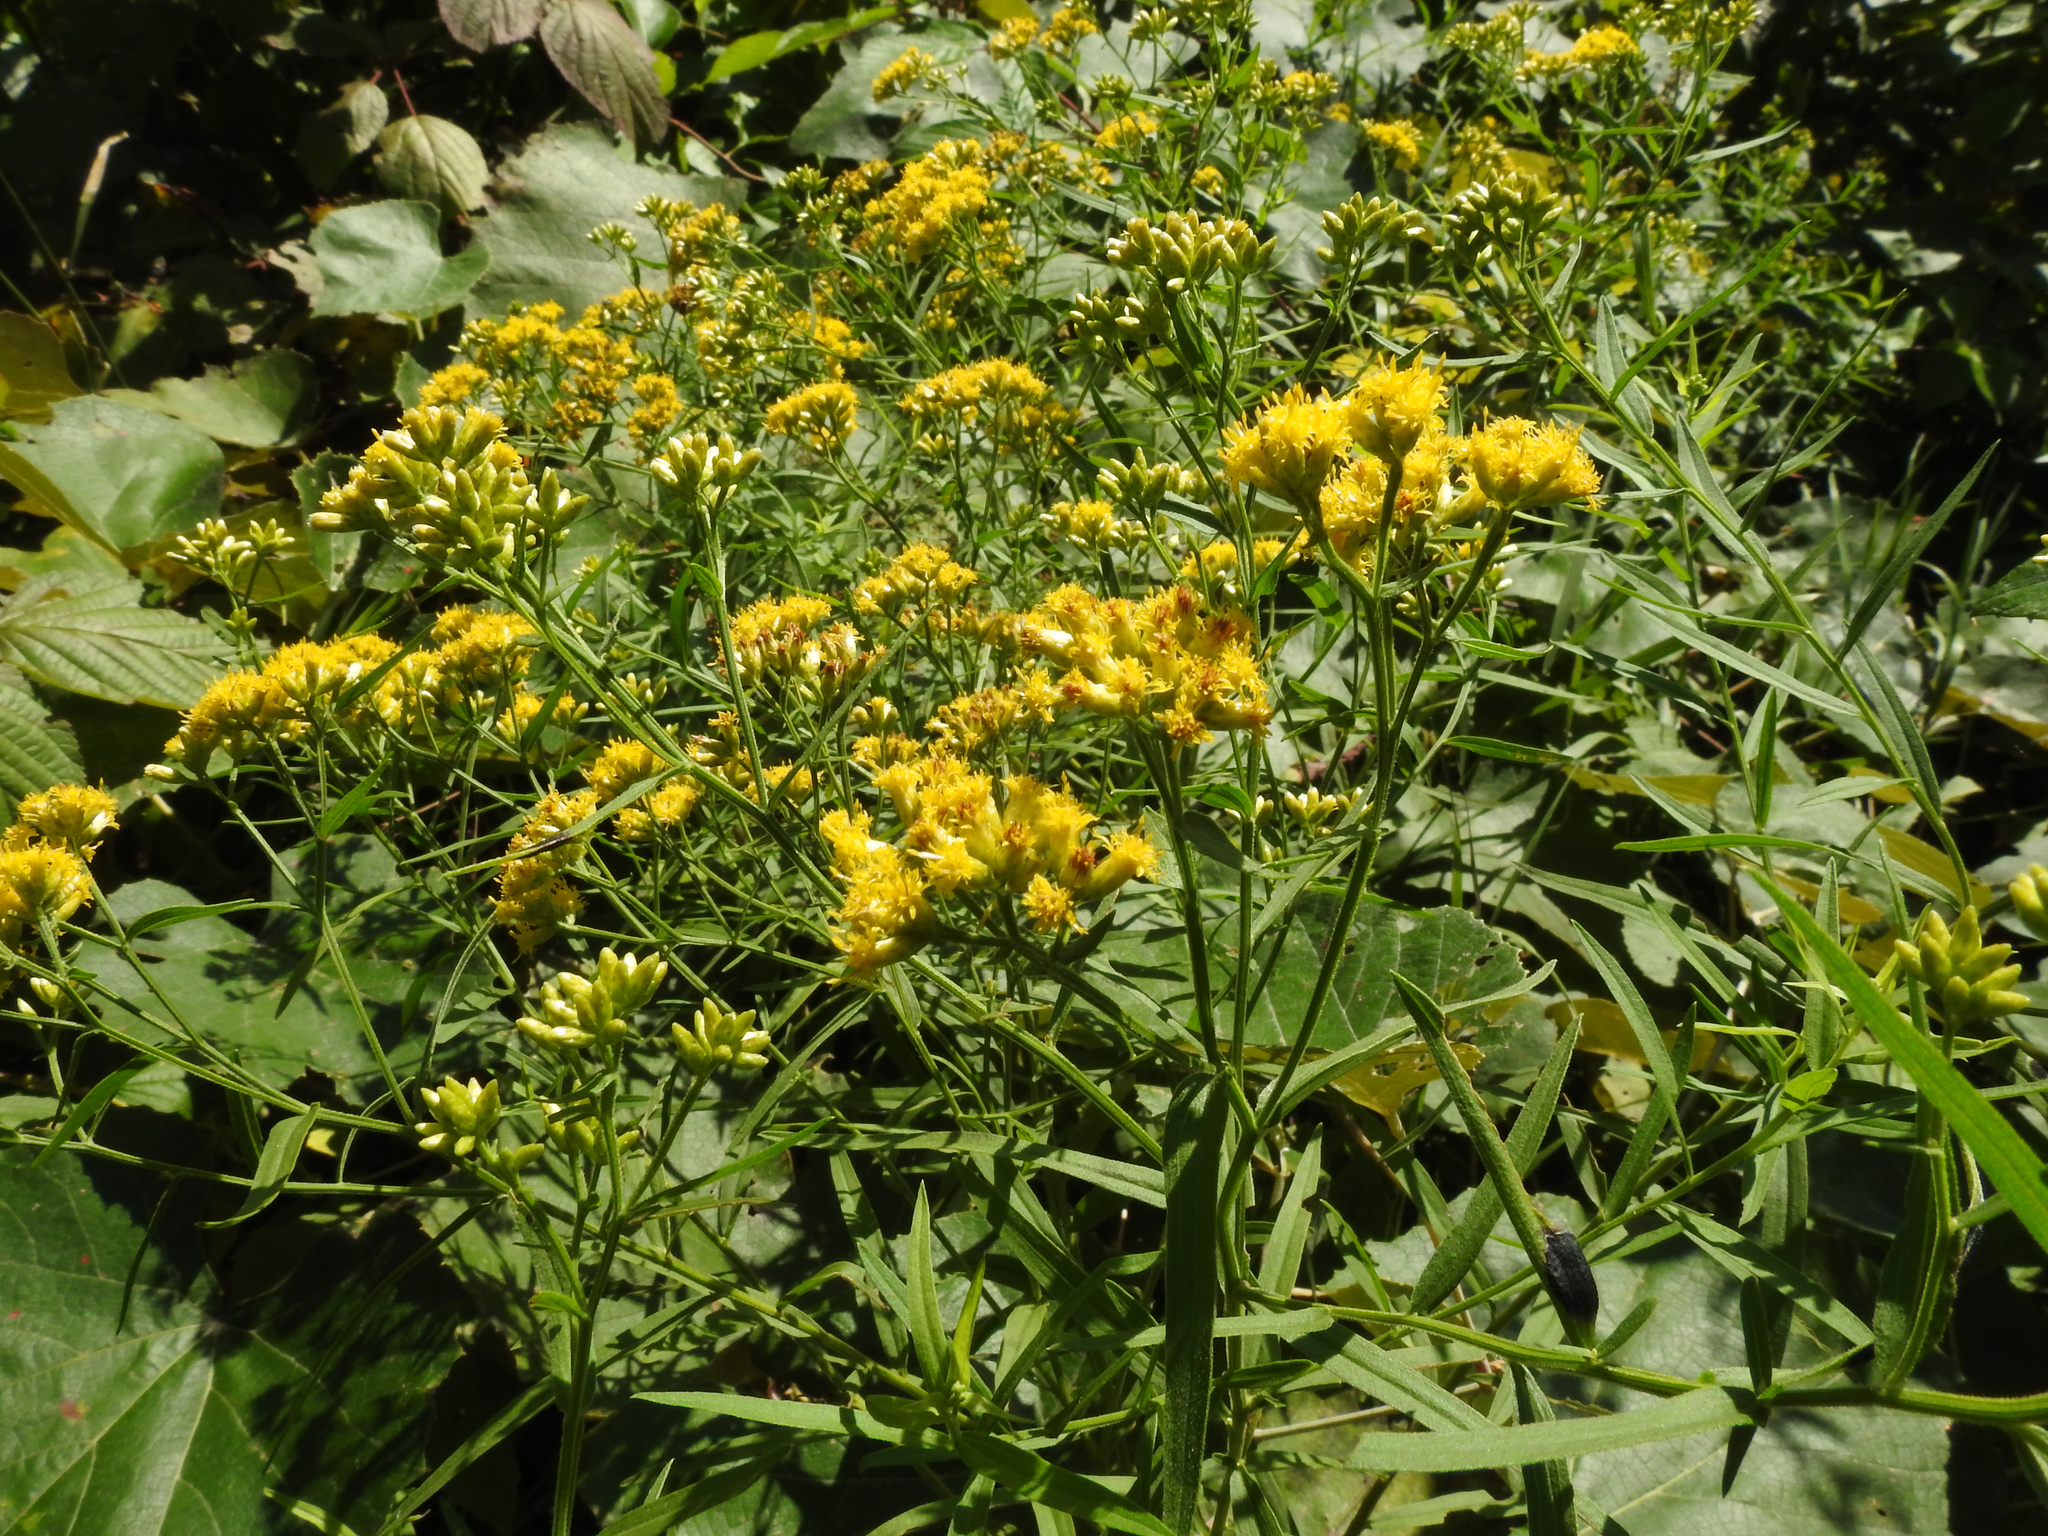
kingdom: Plantae
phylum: Tracheophyta
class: Magnoliopsida
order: Asterales
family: Asteraceae
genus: Euthamia
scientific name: Euthamia graminifolia
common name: Common goldentop
